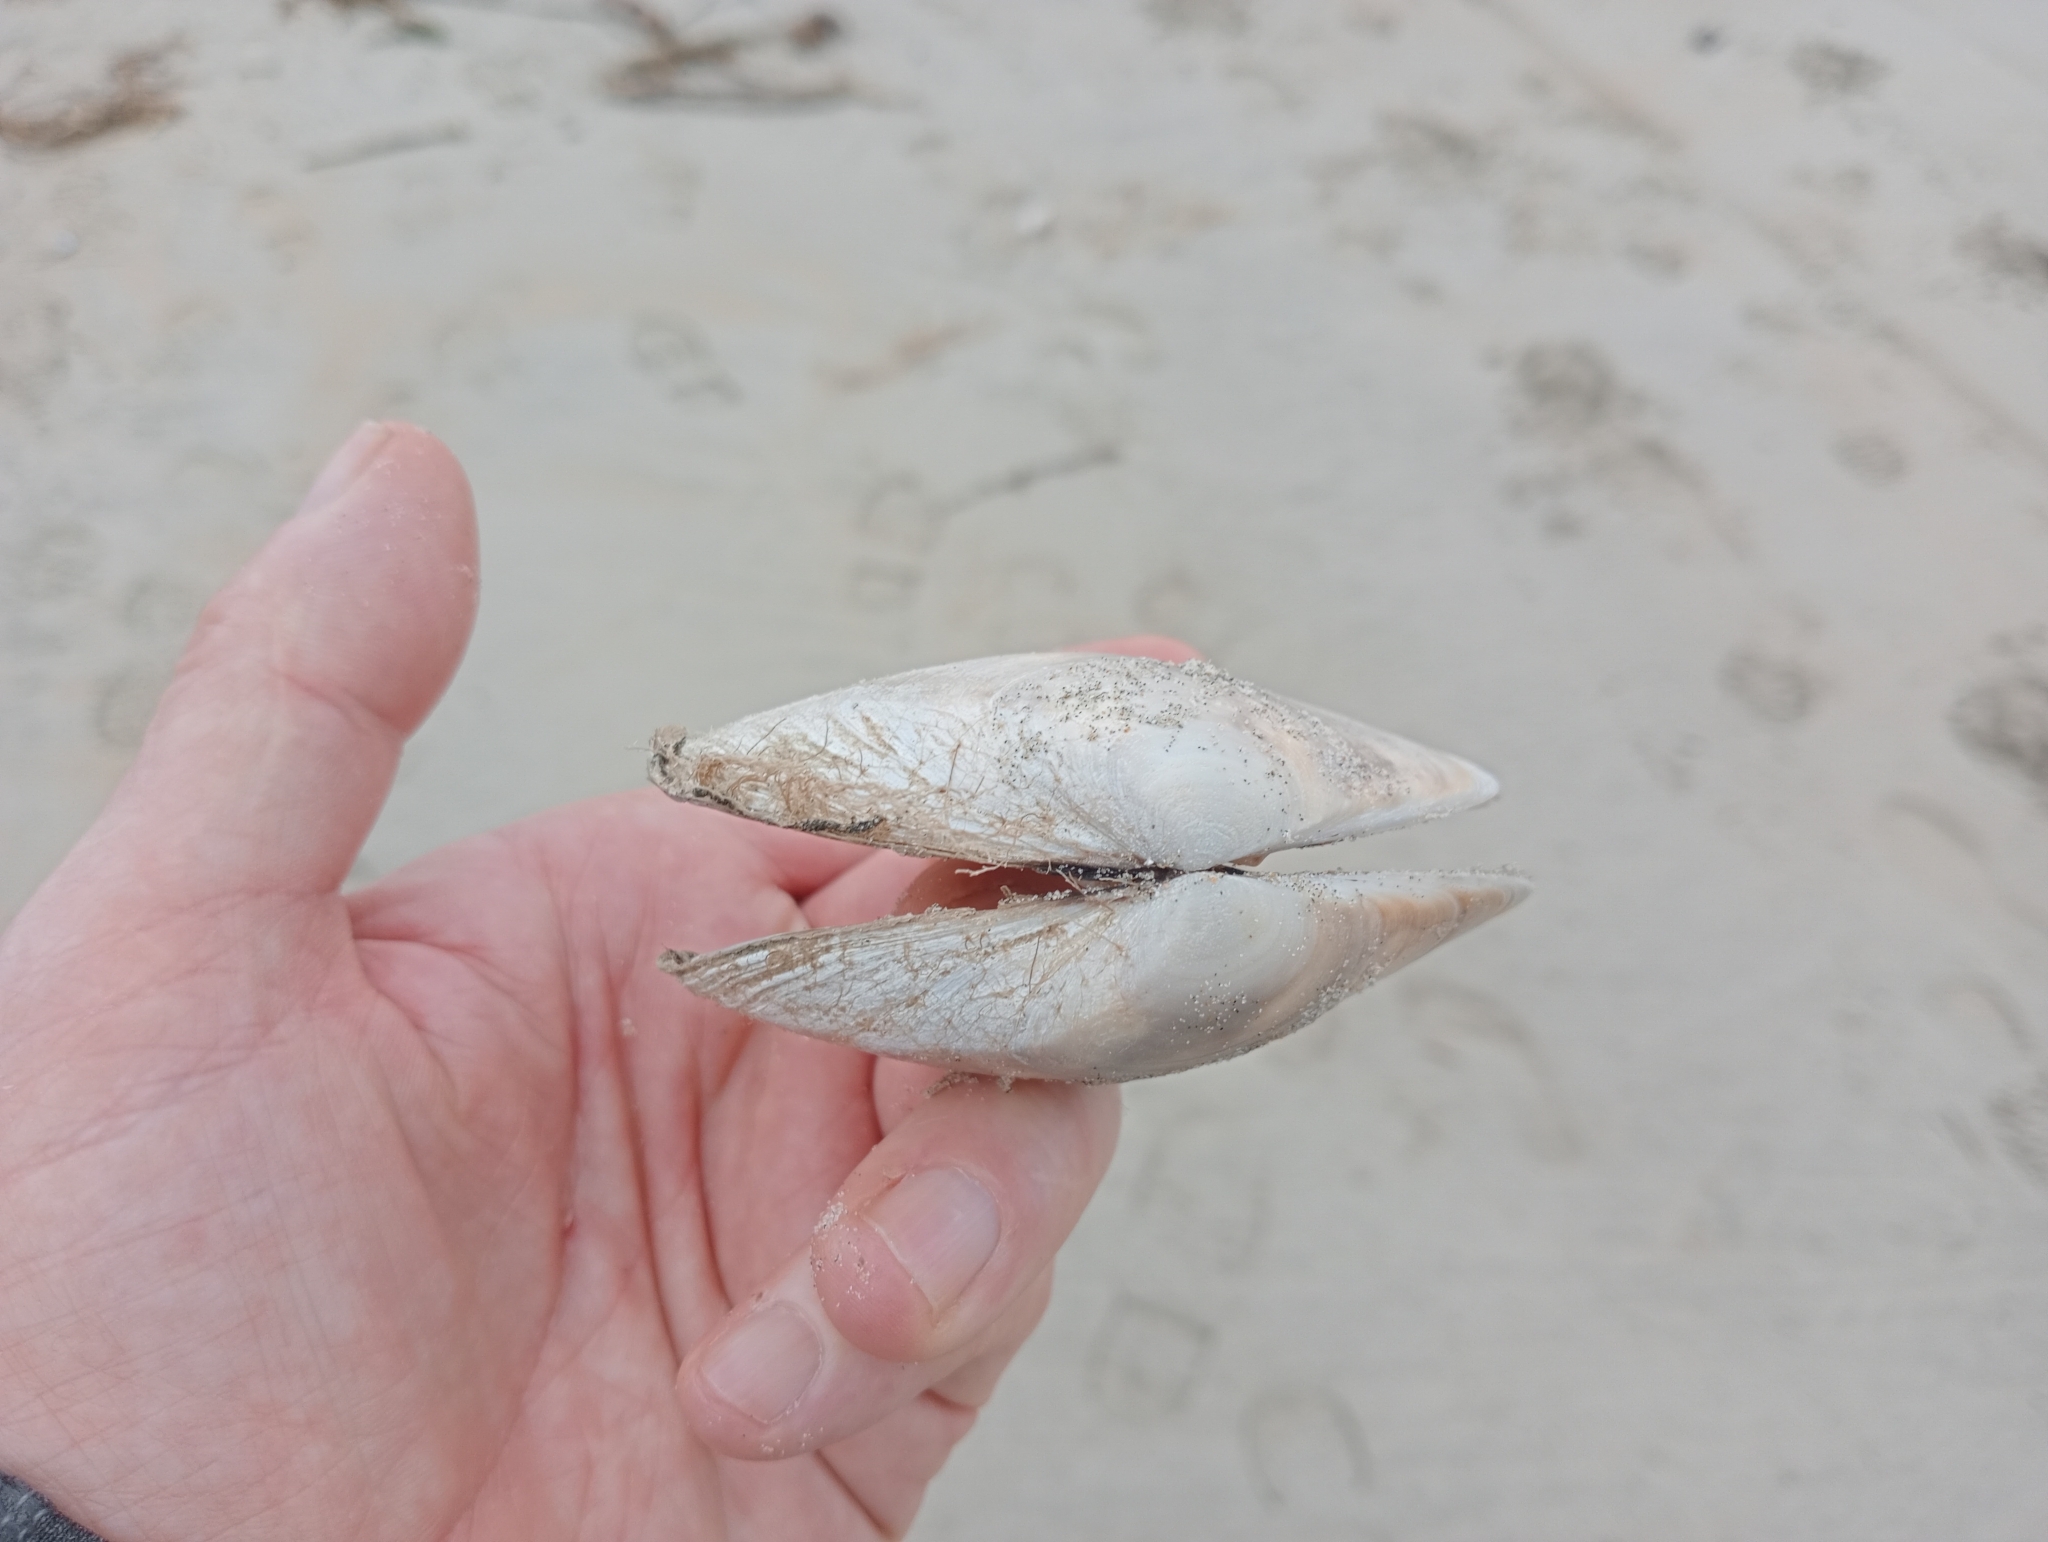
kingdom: Animalia
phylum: Mollusca
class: Bivalvia
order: Venerida
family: Mesodesmatidae
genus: Paphies
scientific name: Paphies donacina
